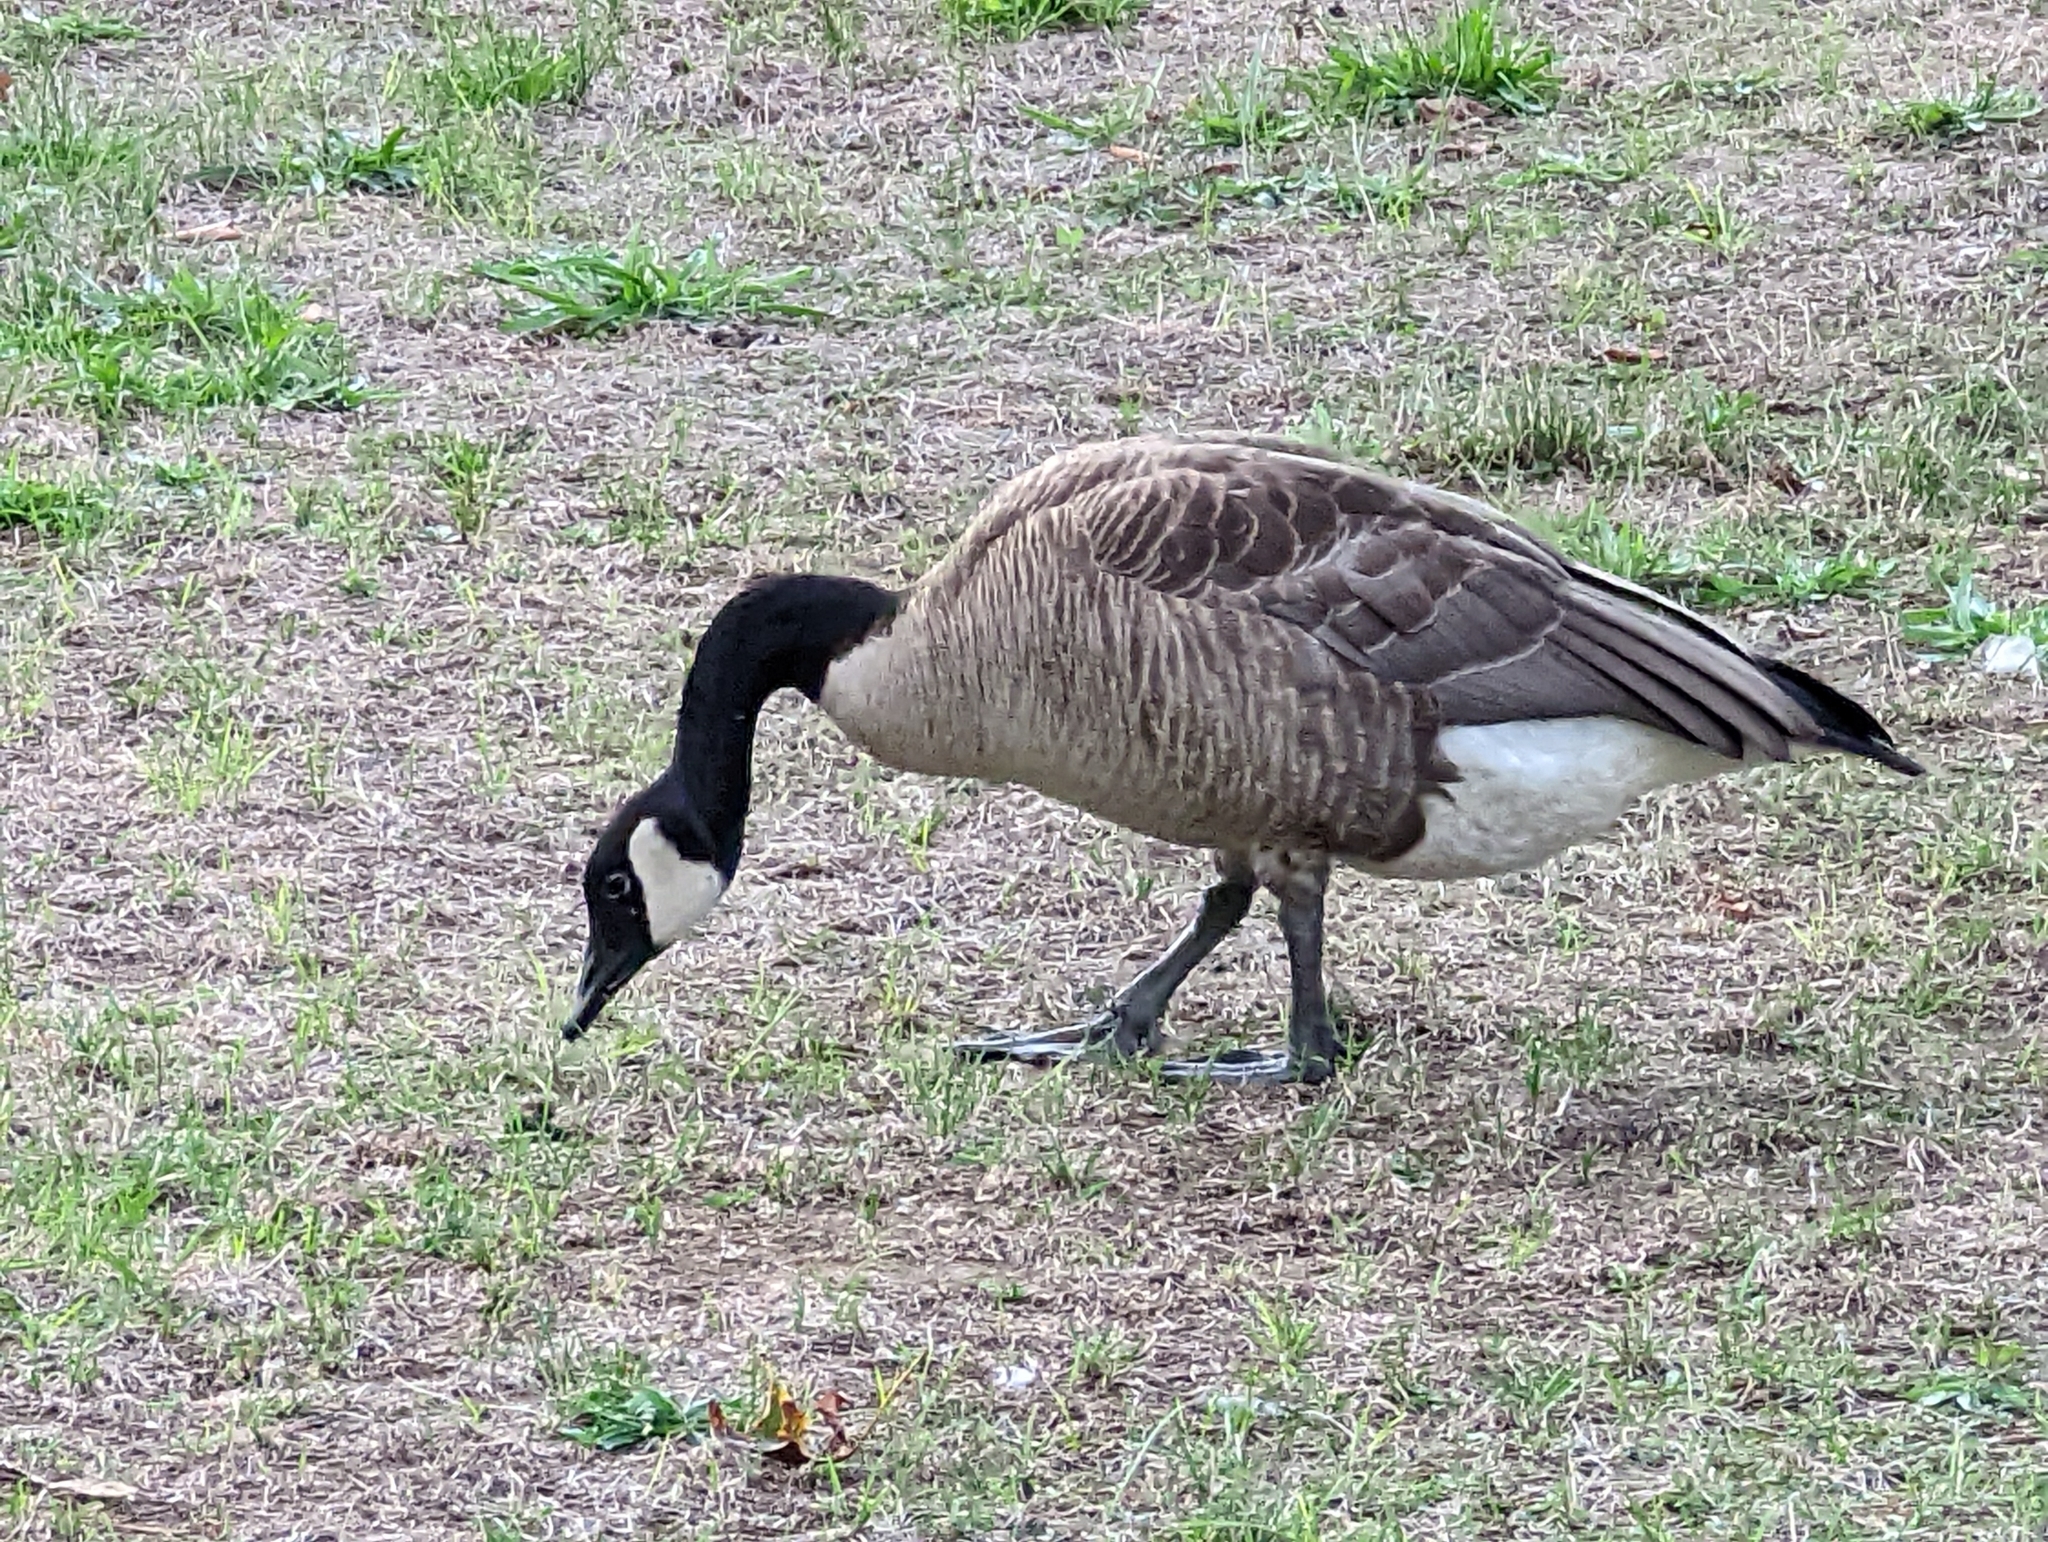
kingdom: Animalia
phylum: Chordata
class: Aves
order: Anseriformes
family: Anatidae
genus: Branta
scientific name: Branta canadensis
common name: Canada goose
